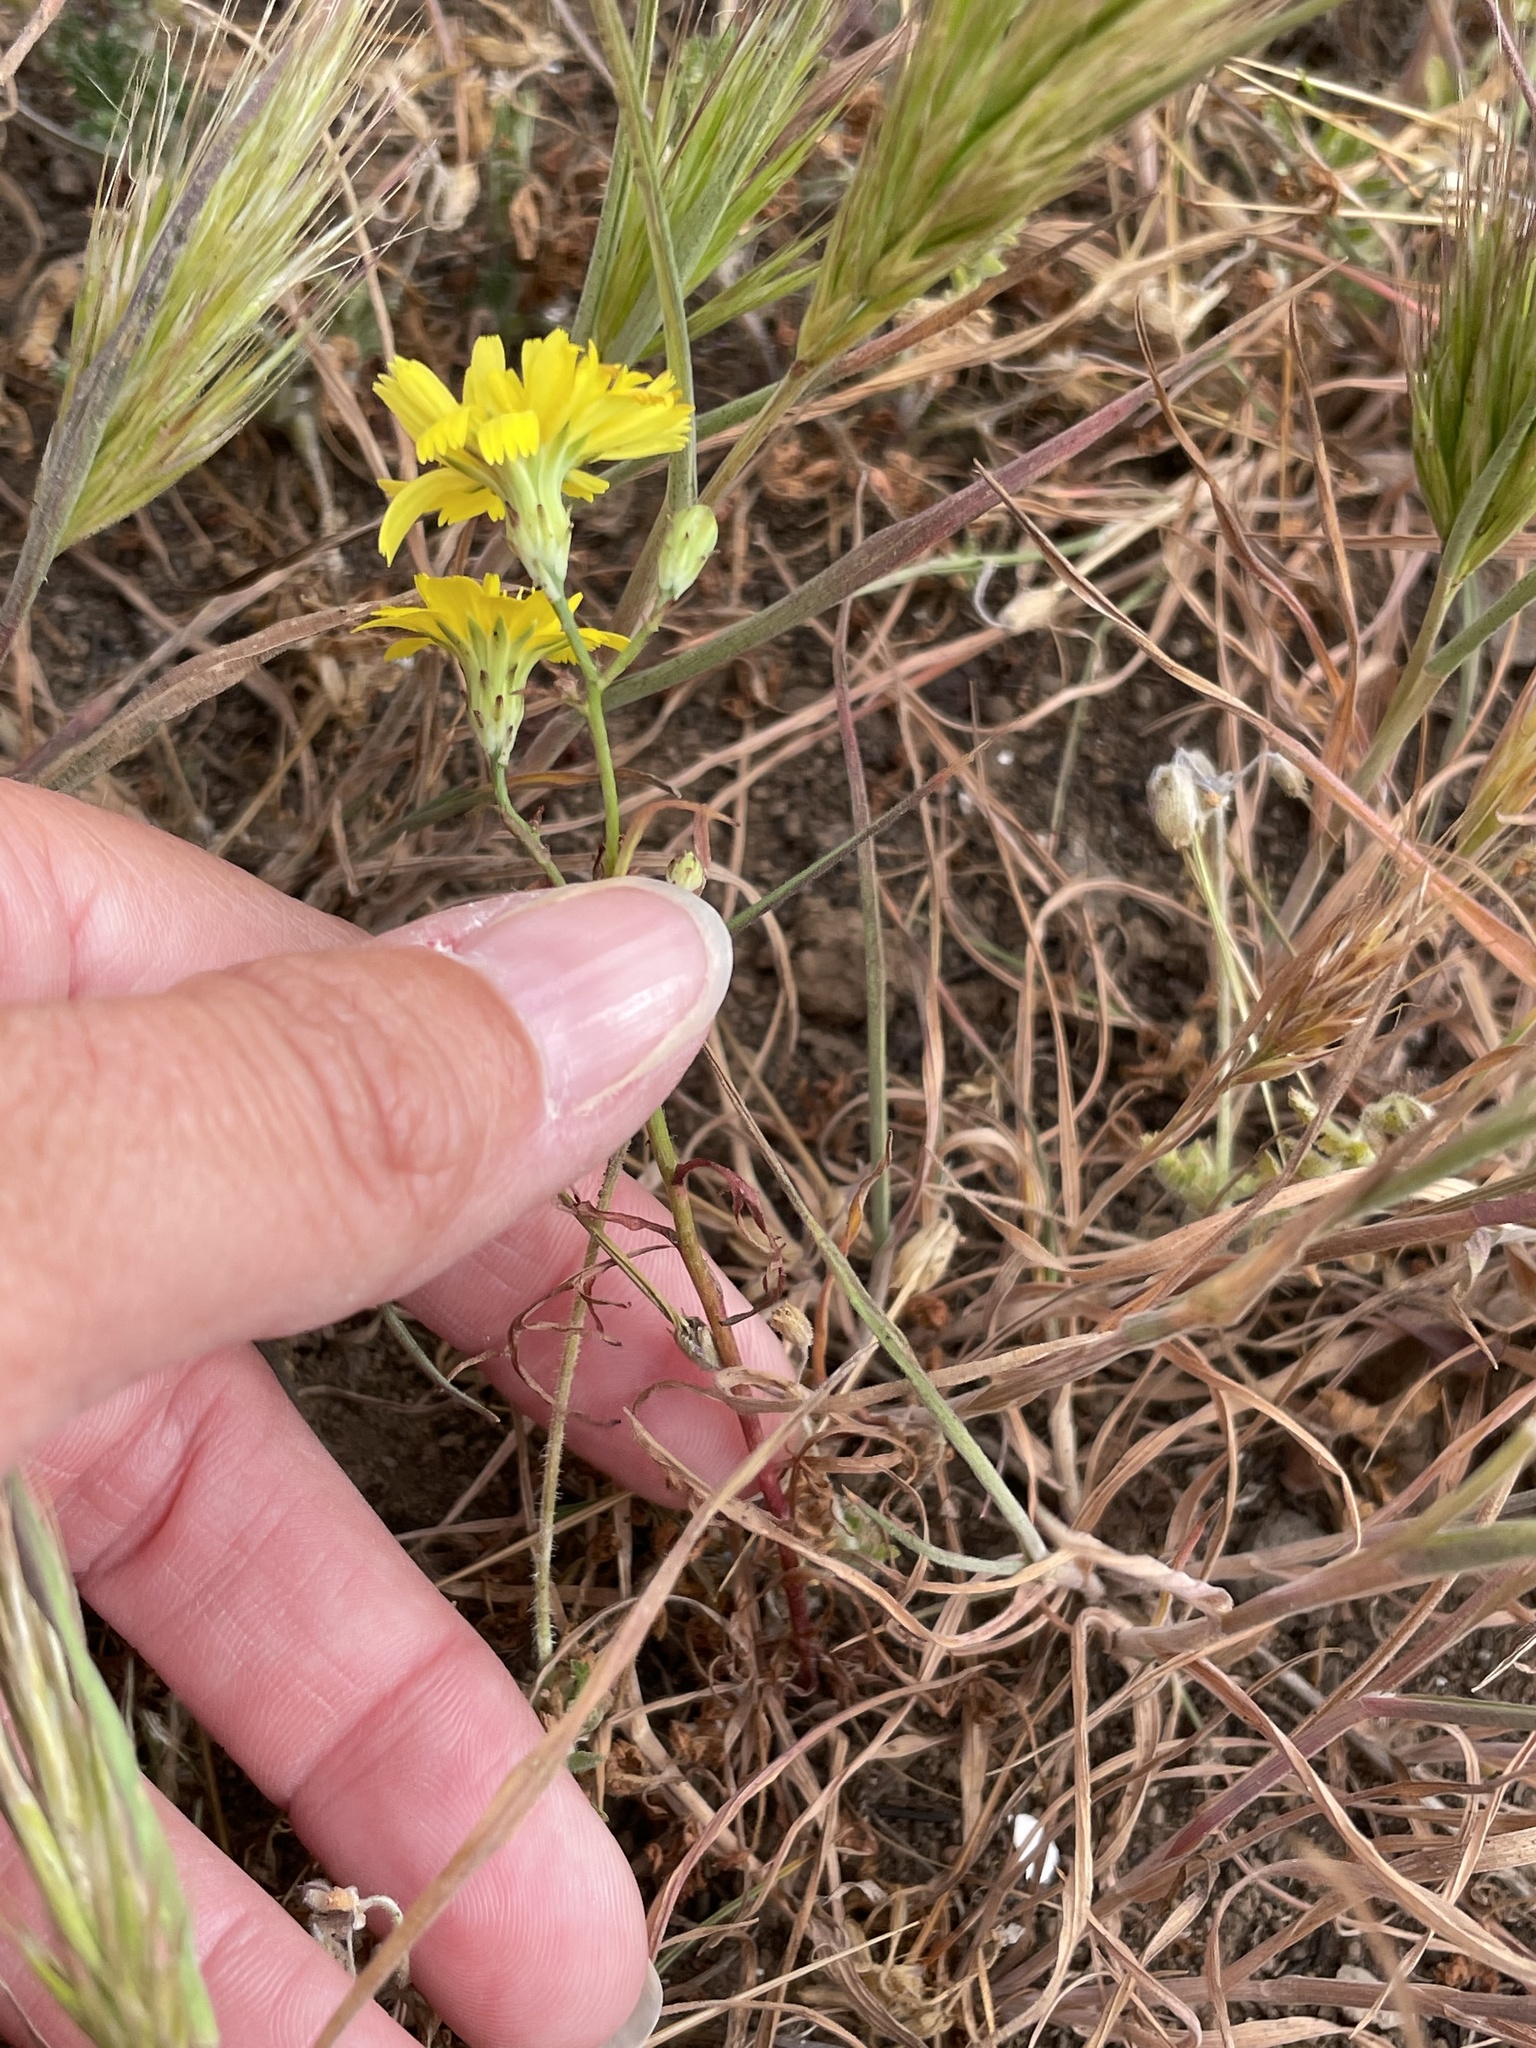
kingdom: Plantae
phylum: Tracheophyta
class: Magnoliopsida
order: Asterales
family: Asteraceae
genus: Malacothrix
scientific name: Malacothrix foliosa
